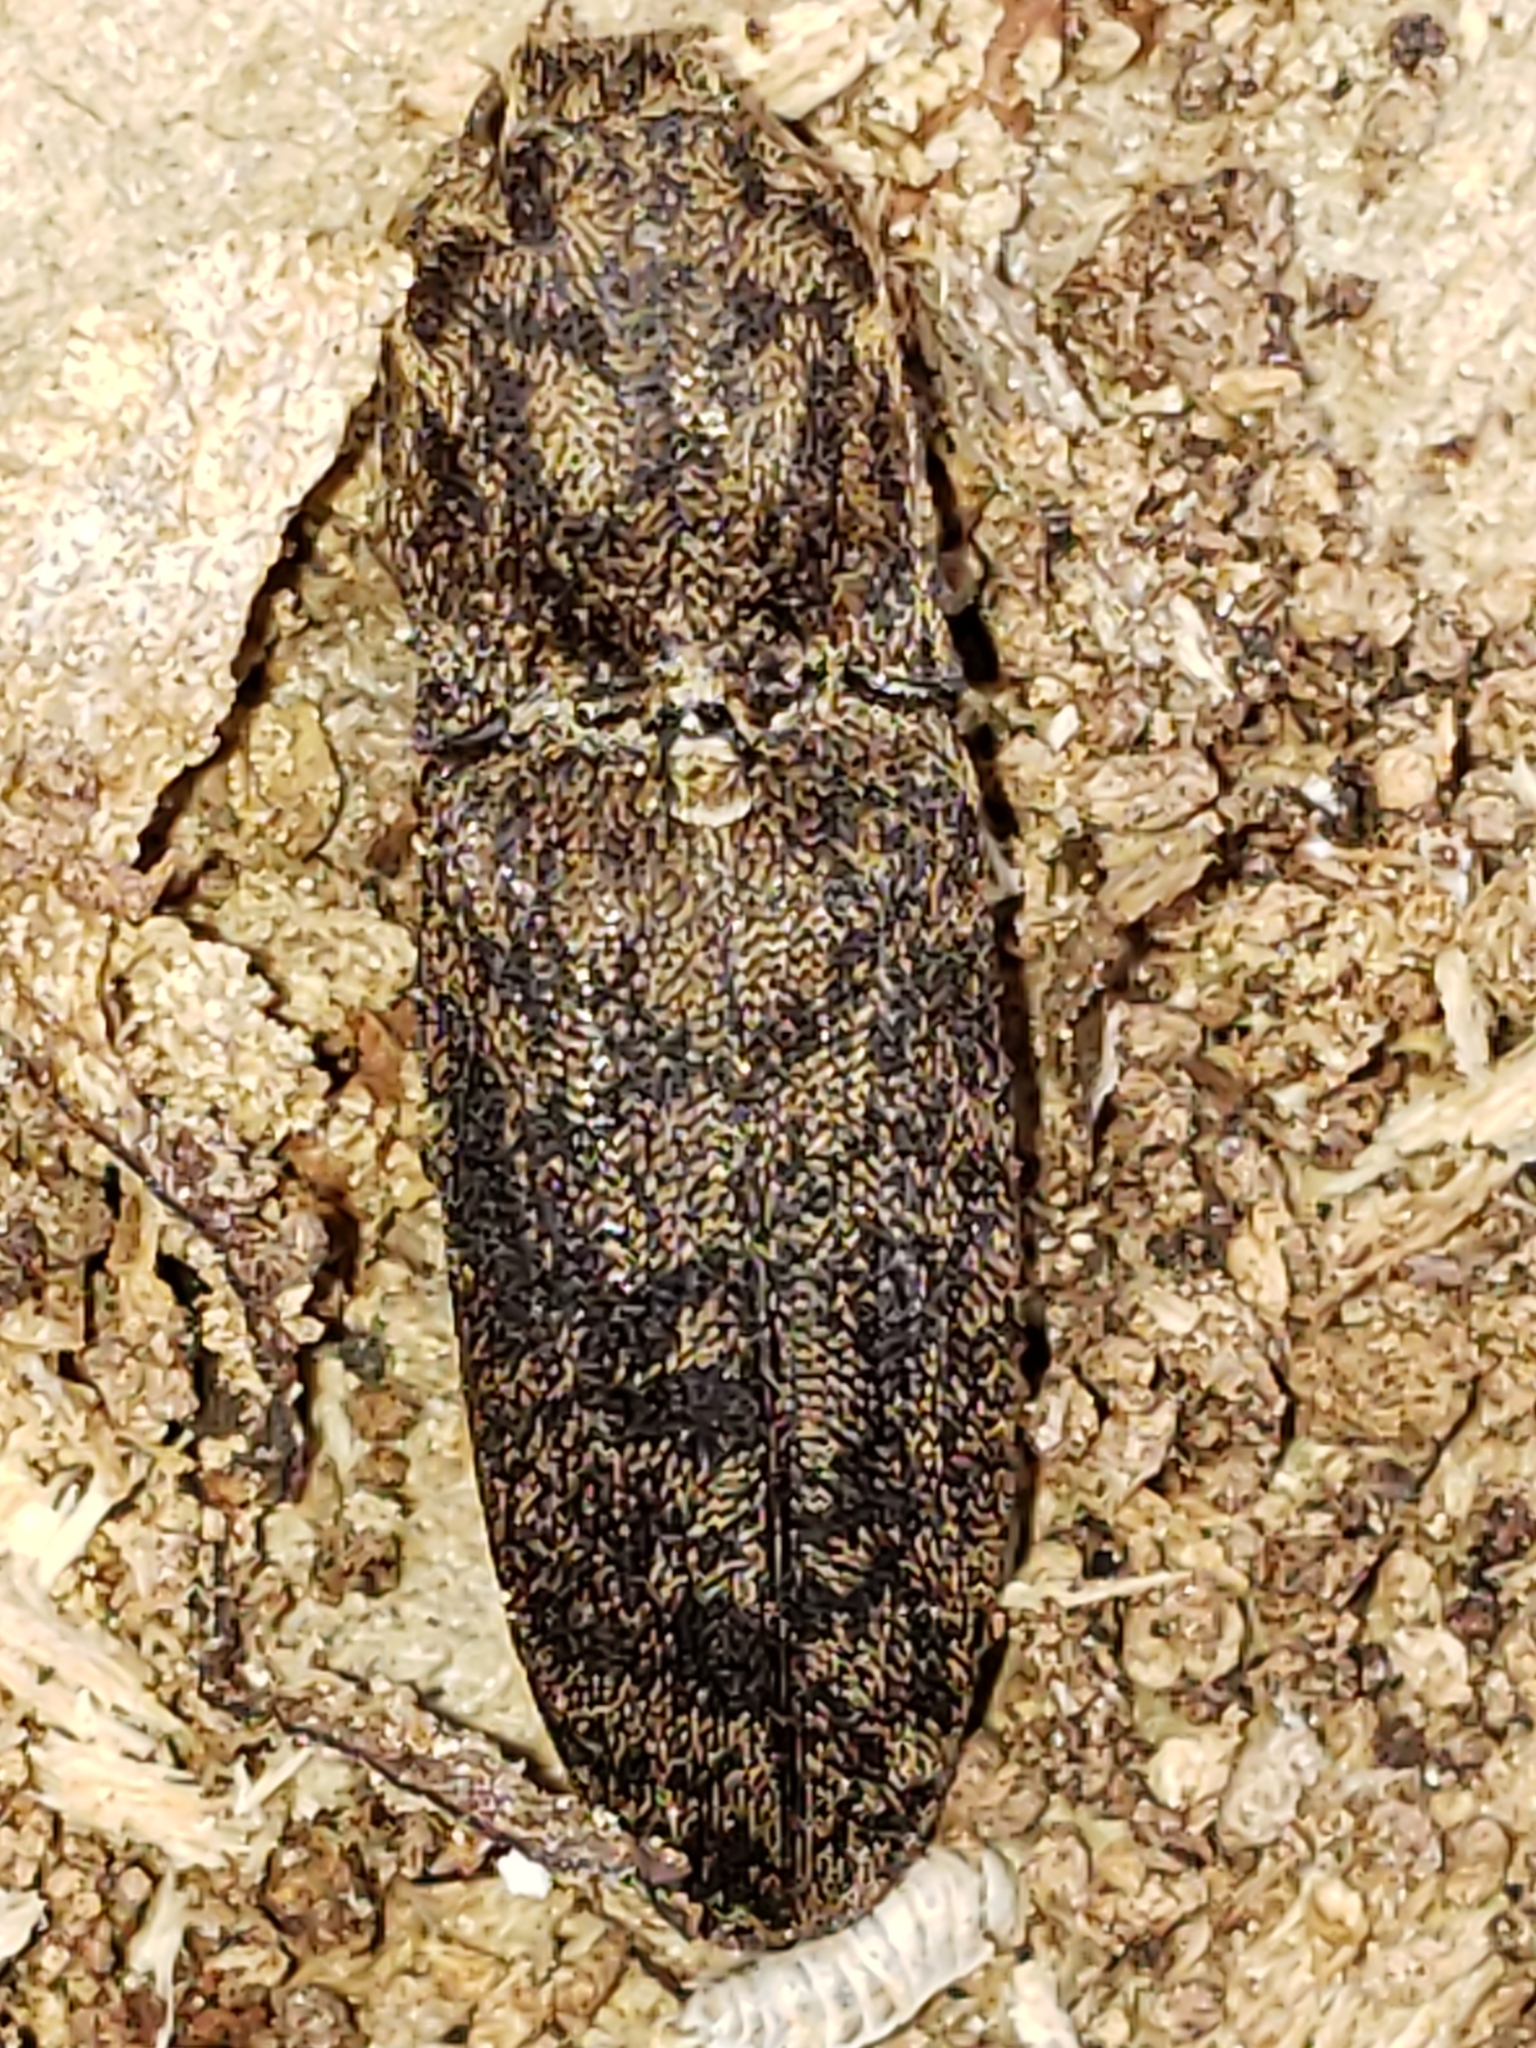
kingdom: Animalia
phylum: Arthropoda
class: Insecta
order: Coleoptera
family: Elateridae
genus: Lacon
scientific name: Lacon marmoratus
